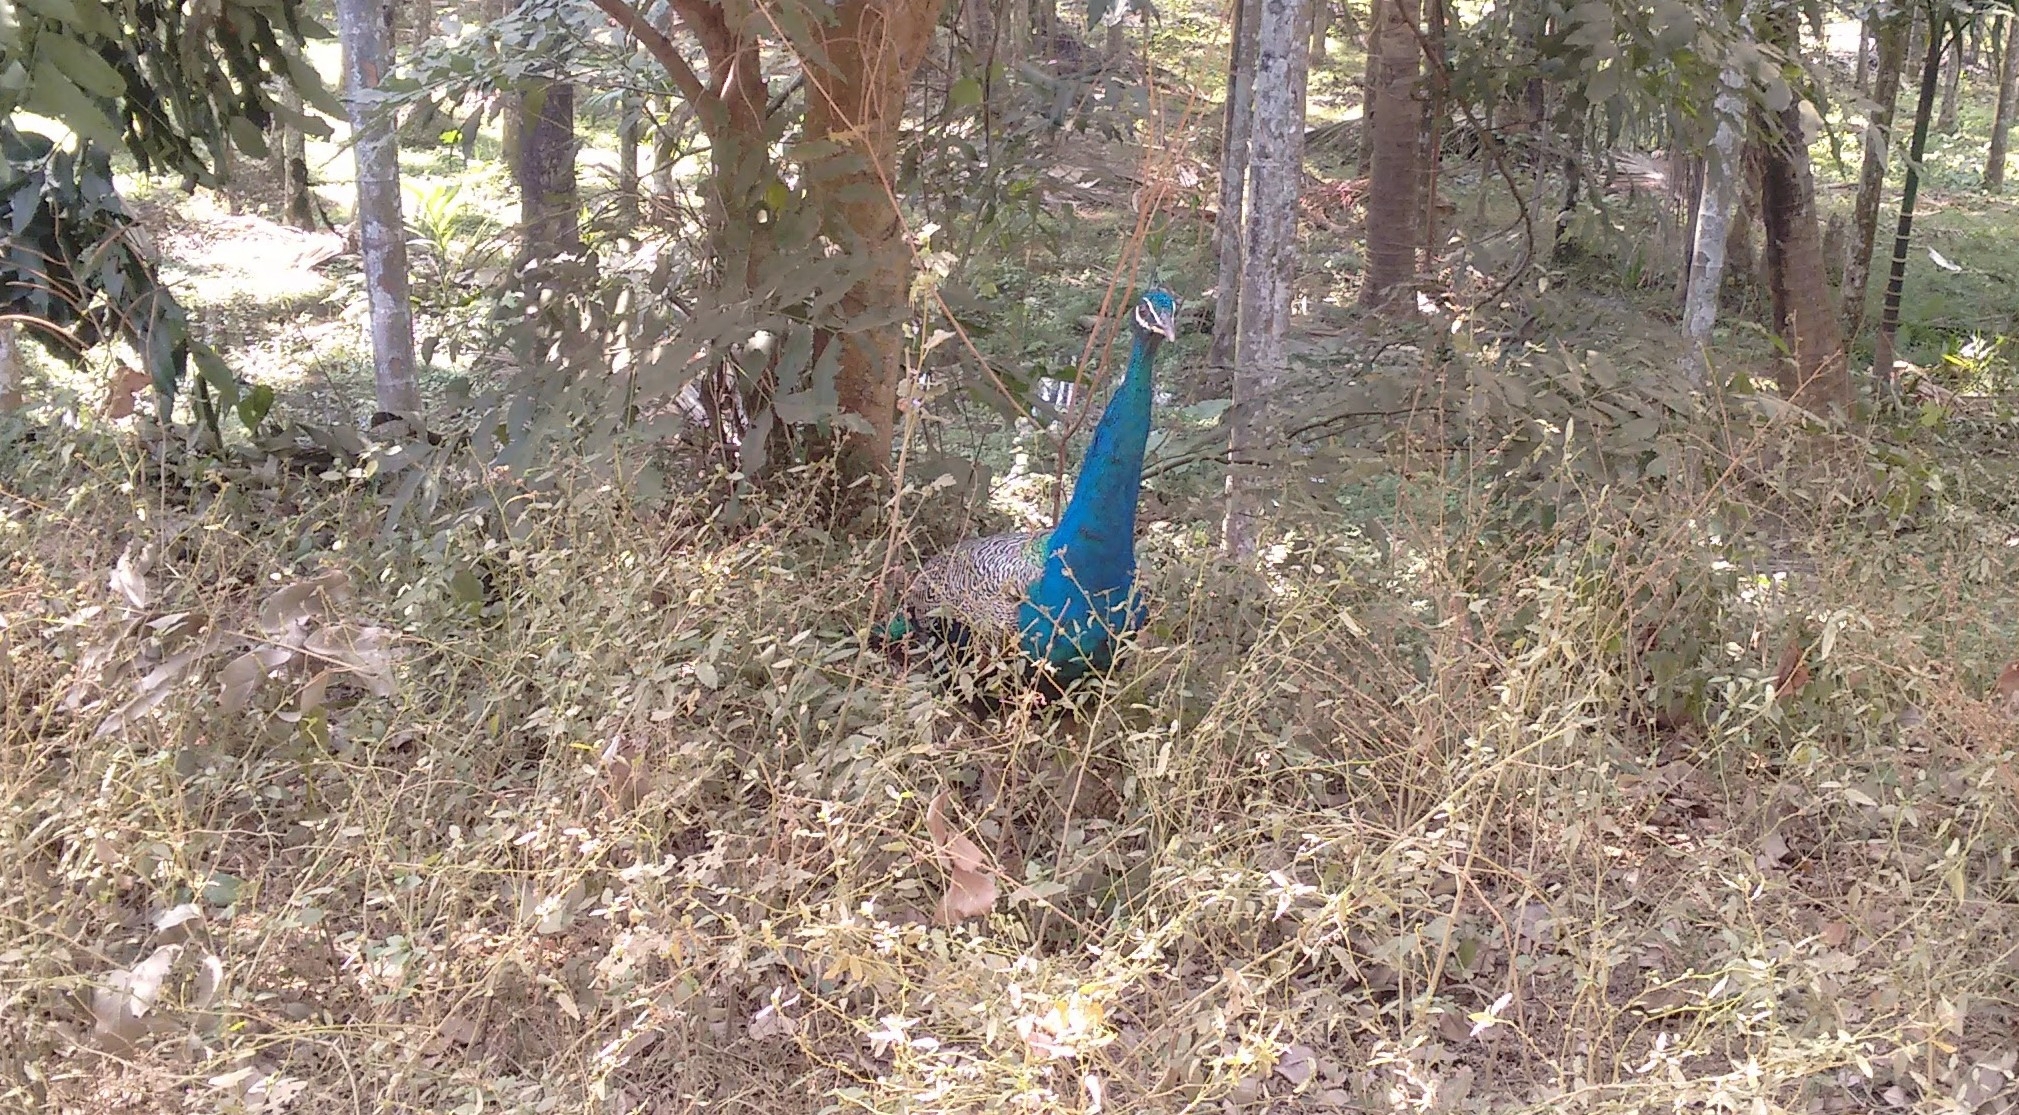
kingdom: Animalia
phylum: Chordata
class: Aves
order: Galliformes
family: Phasianidae
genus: Pavo
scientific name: Pavo cristatus
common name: Indian peafowl
